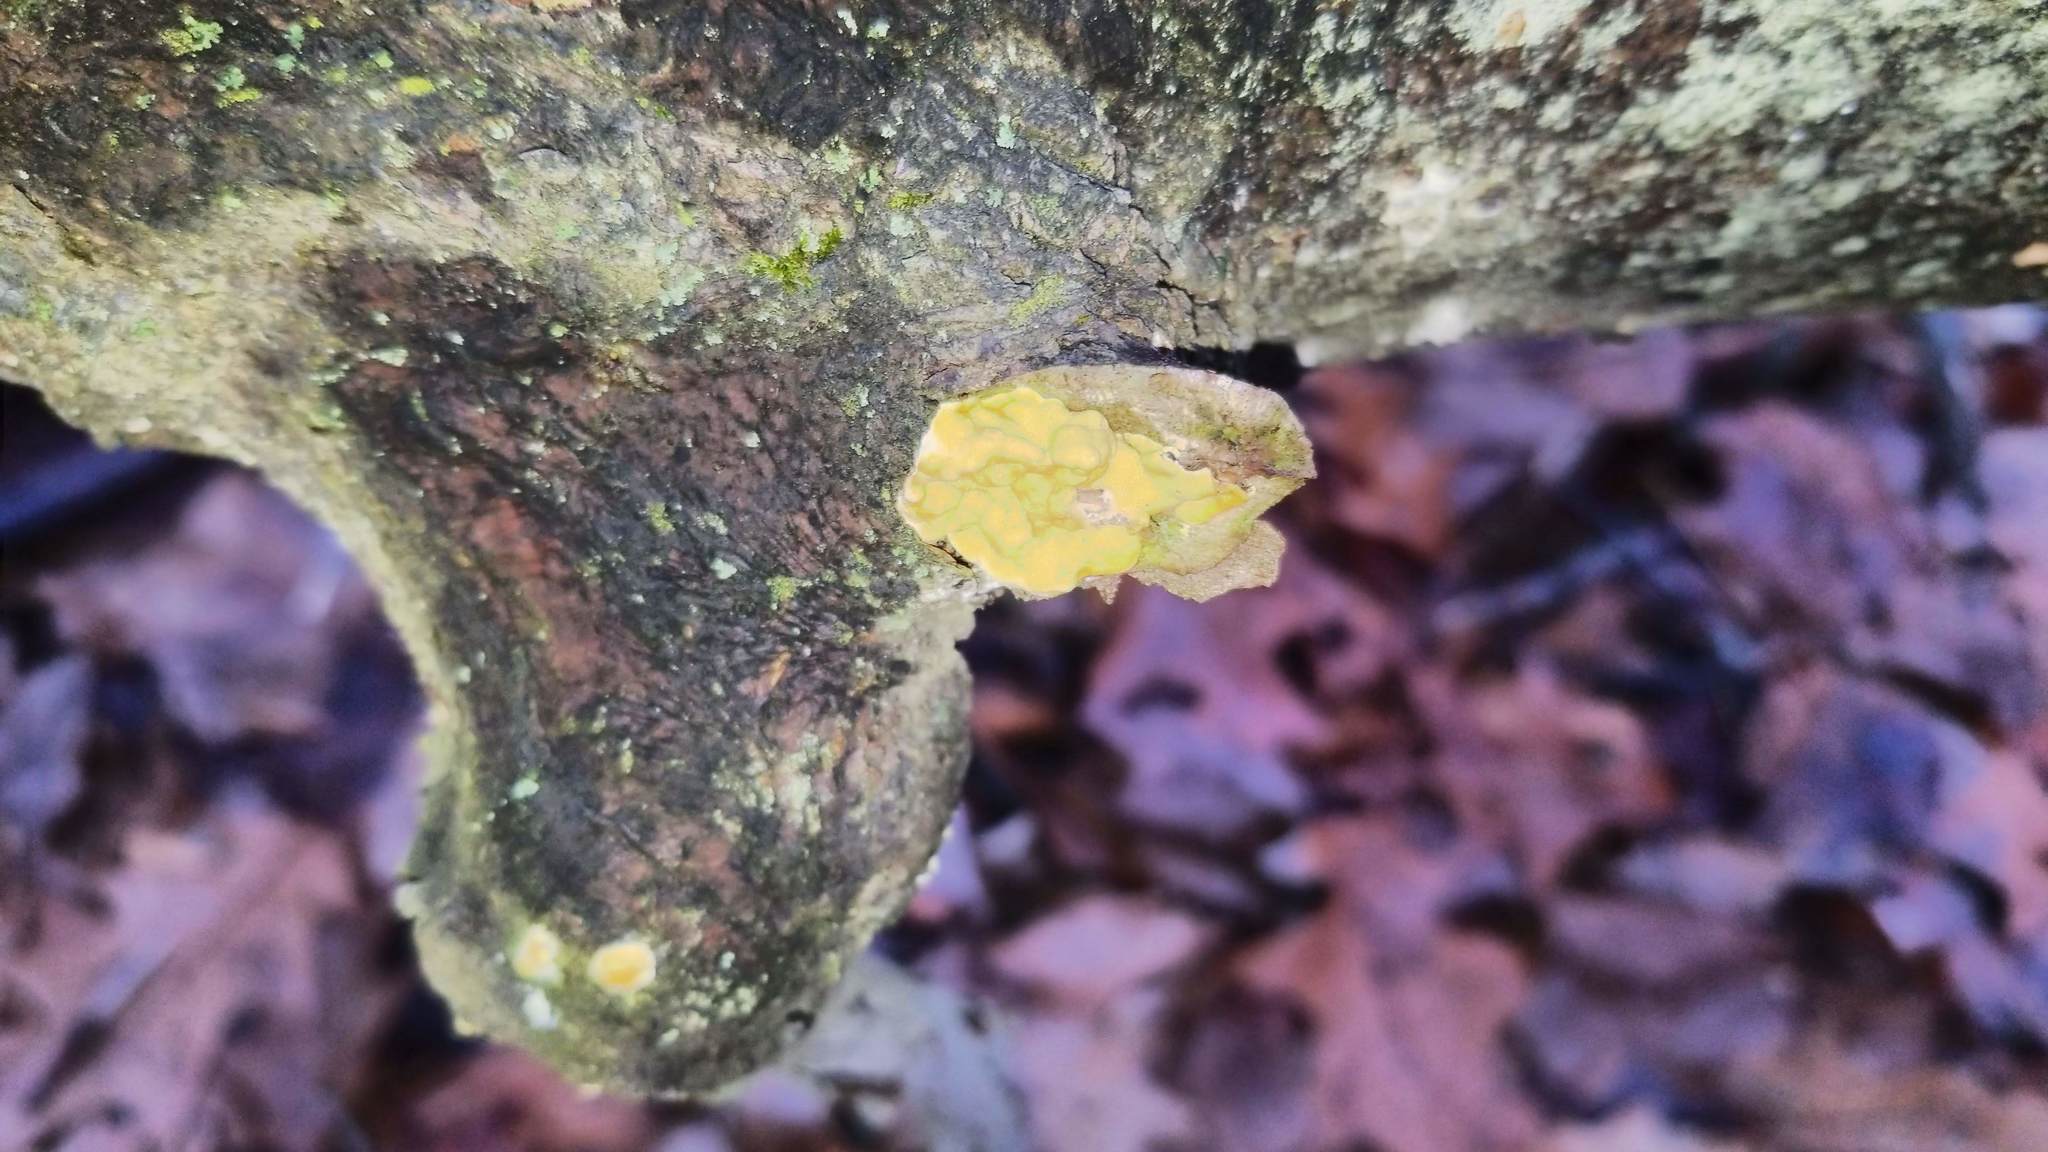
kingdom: Fungi
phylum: Basidiomycota
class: Tremellomycetes
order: Tremellales
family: Tremellaceae
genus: Tremella
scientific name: Tremella mesenterica
